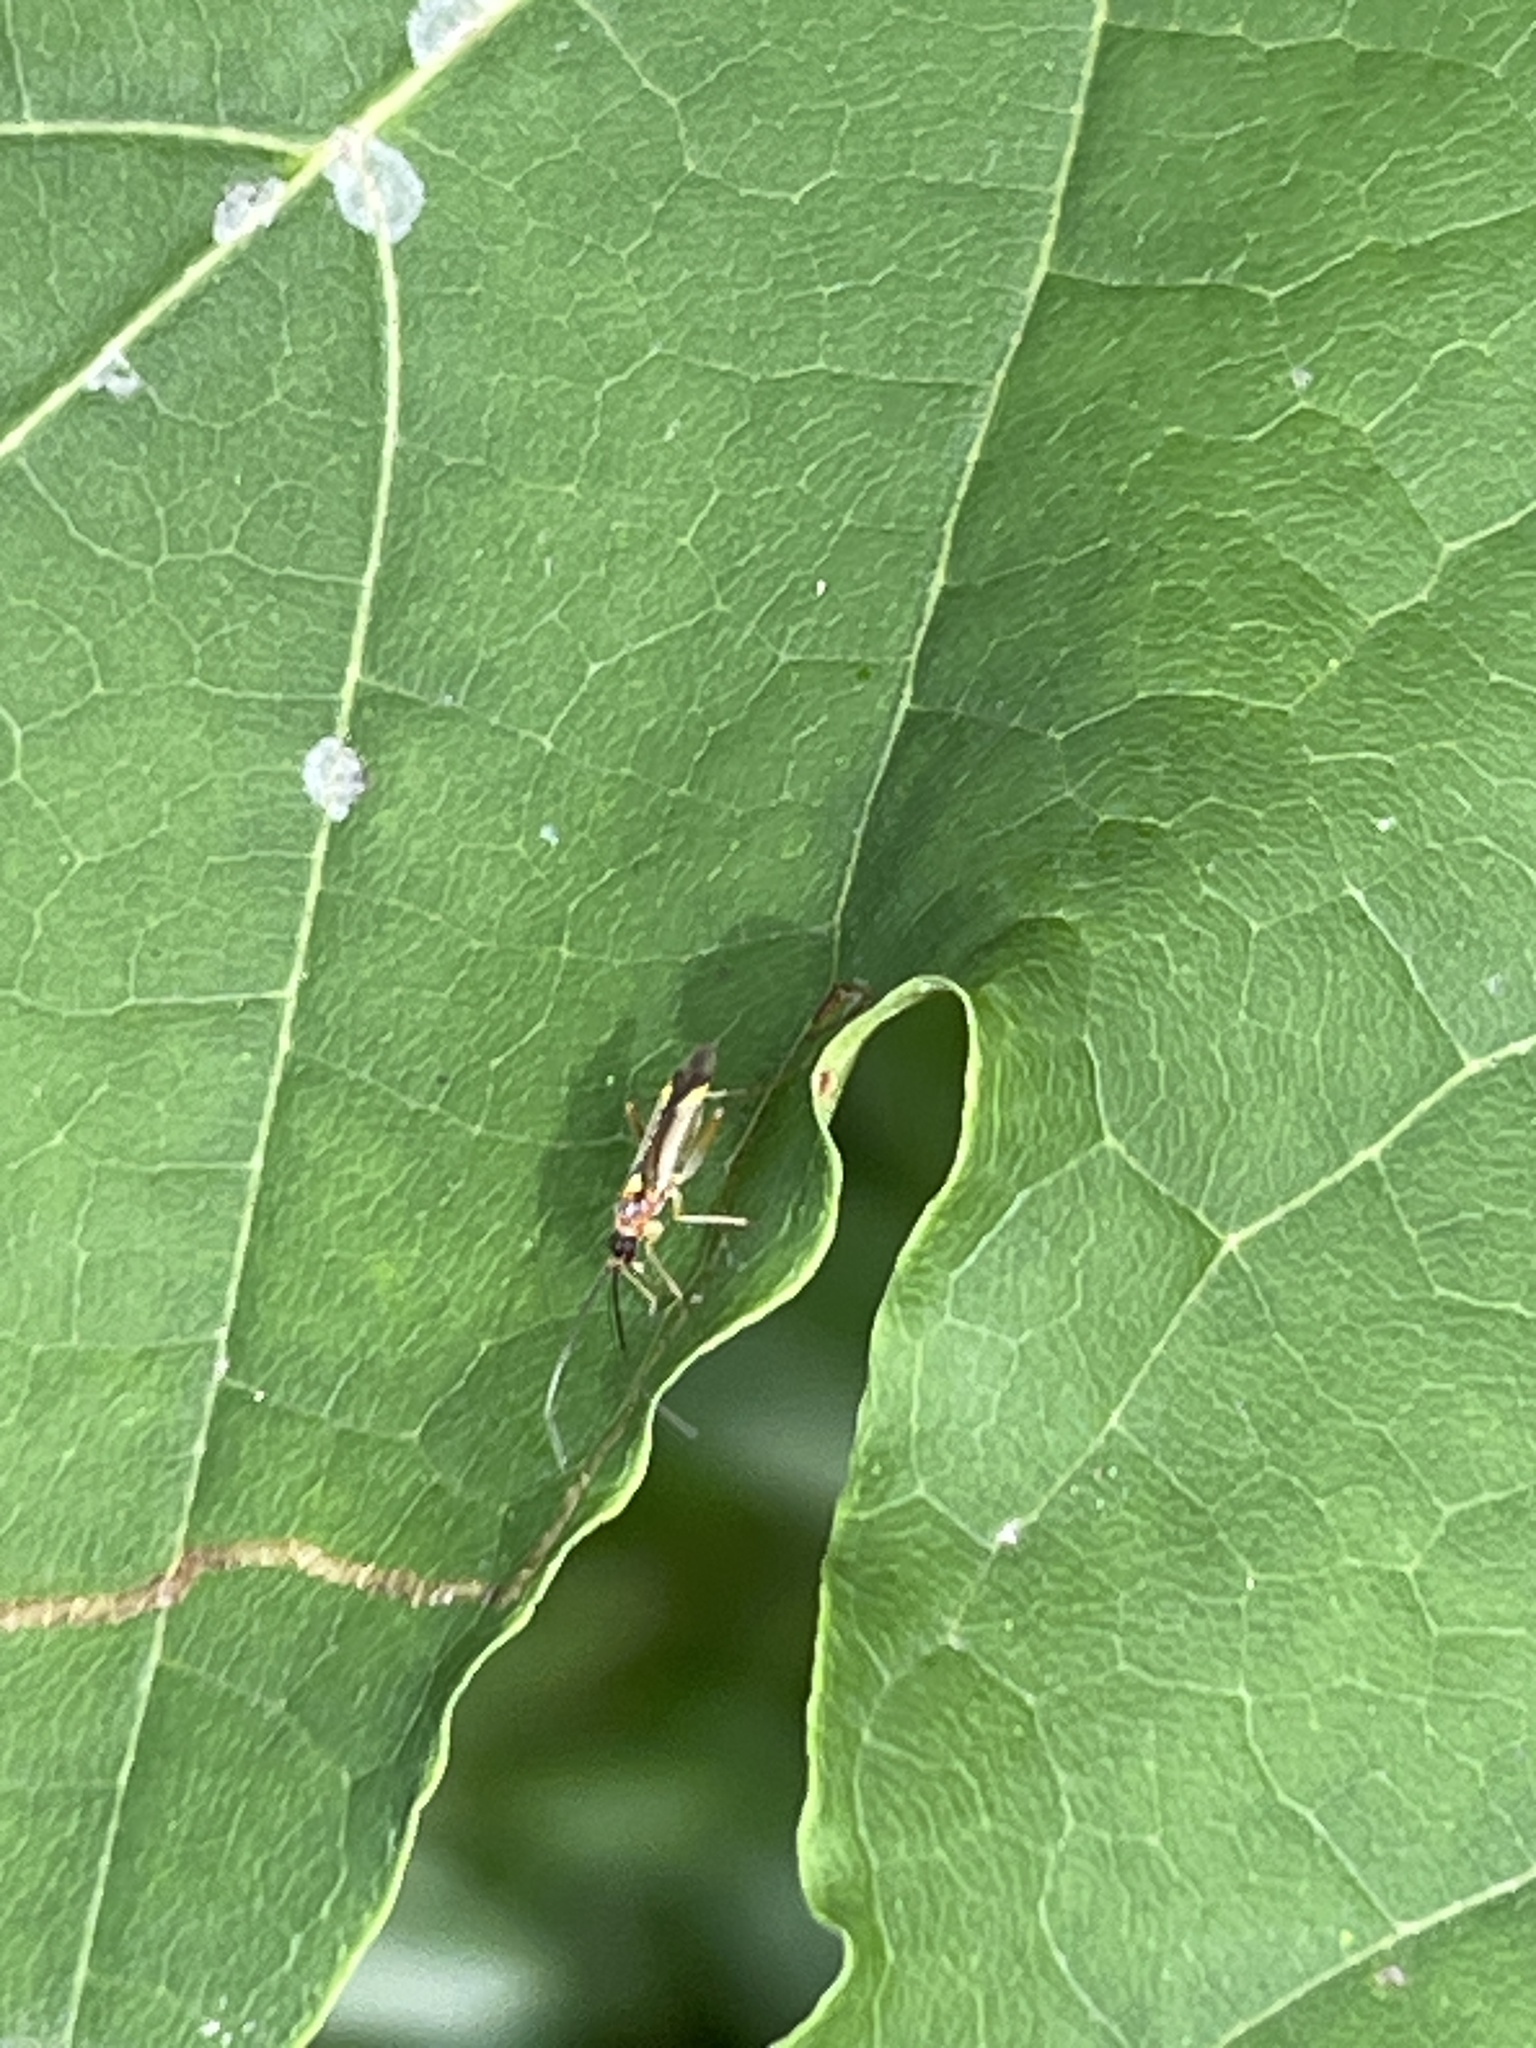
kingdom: Animalia
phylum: Arthropoda
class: Insecta
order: Hemiptera
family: Miridae
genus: Campyloneura
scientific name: Campyloneura virgula
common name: Predatory bug
